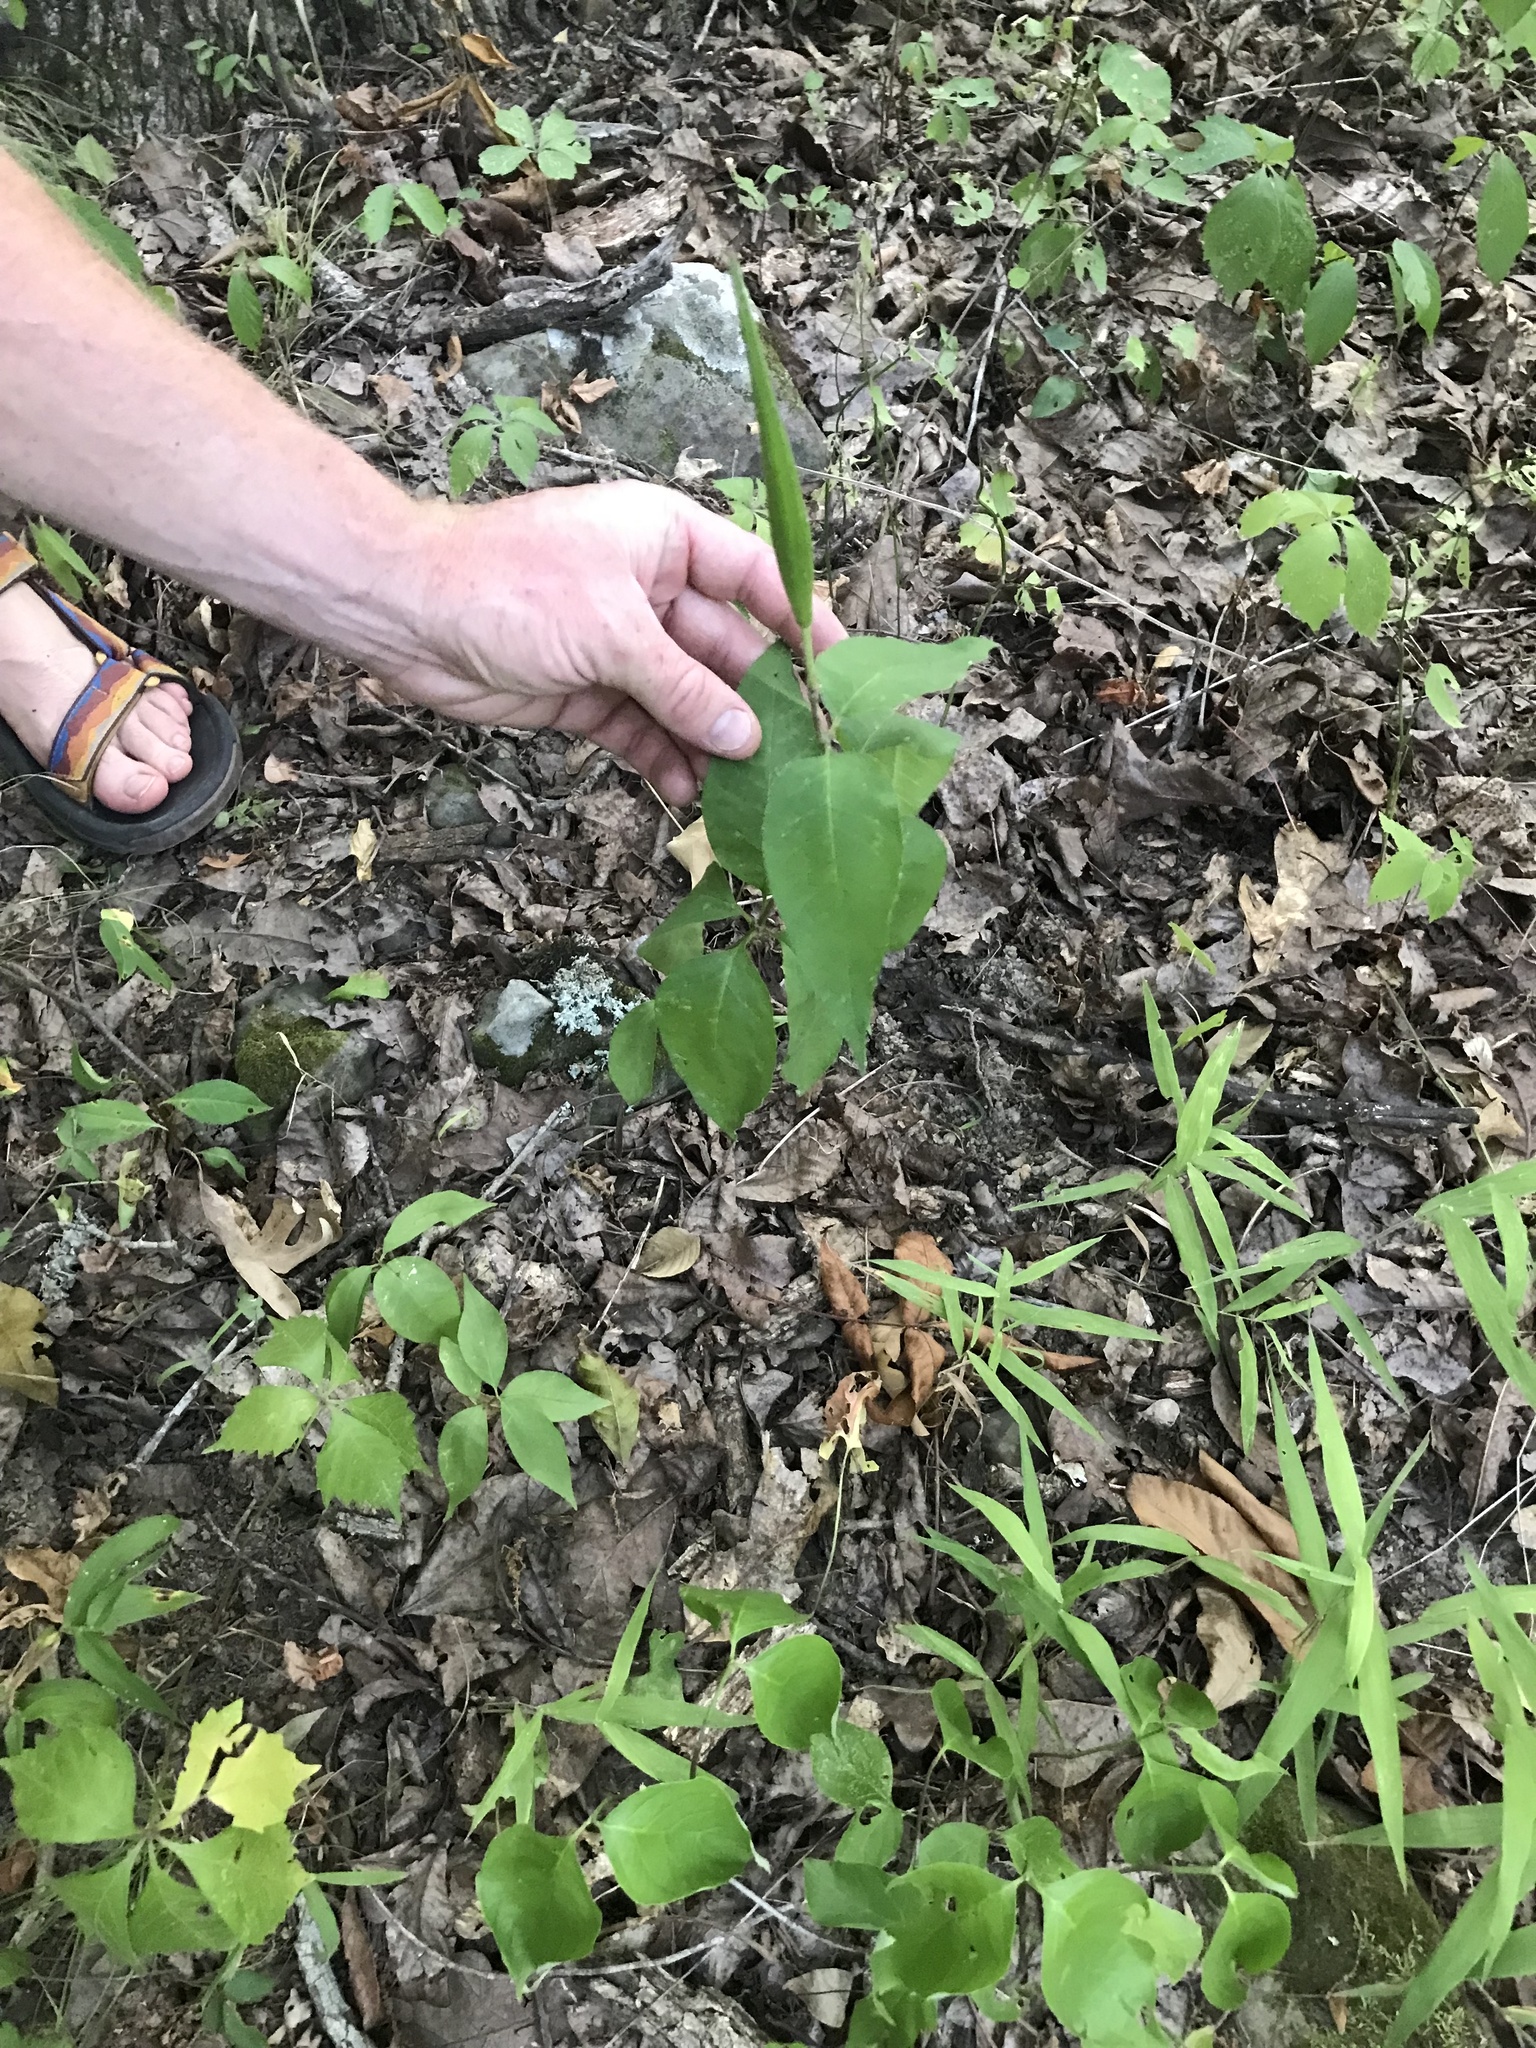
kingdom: Plantae
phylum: Tracheophyta
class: Magnoliopsida
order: Gentianales
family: Apocynaceae
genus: Asclepias
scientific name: Asclepias quadrifolia
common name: Whorled milkweed
